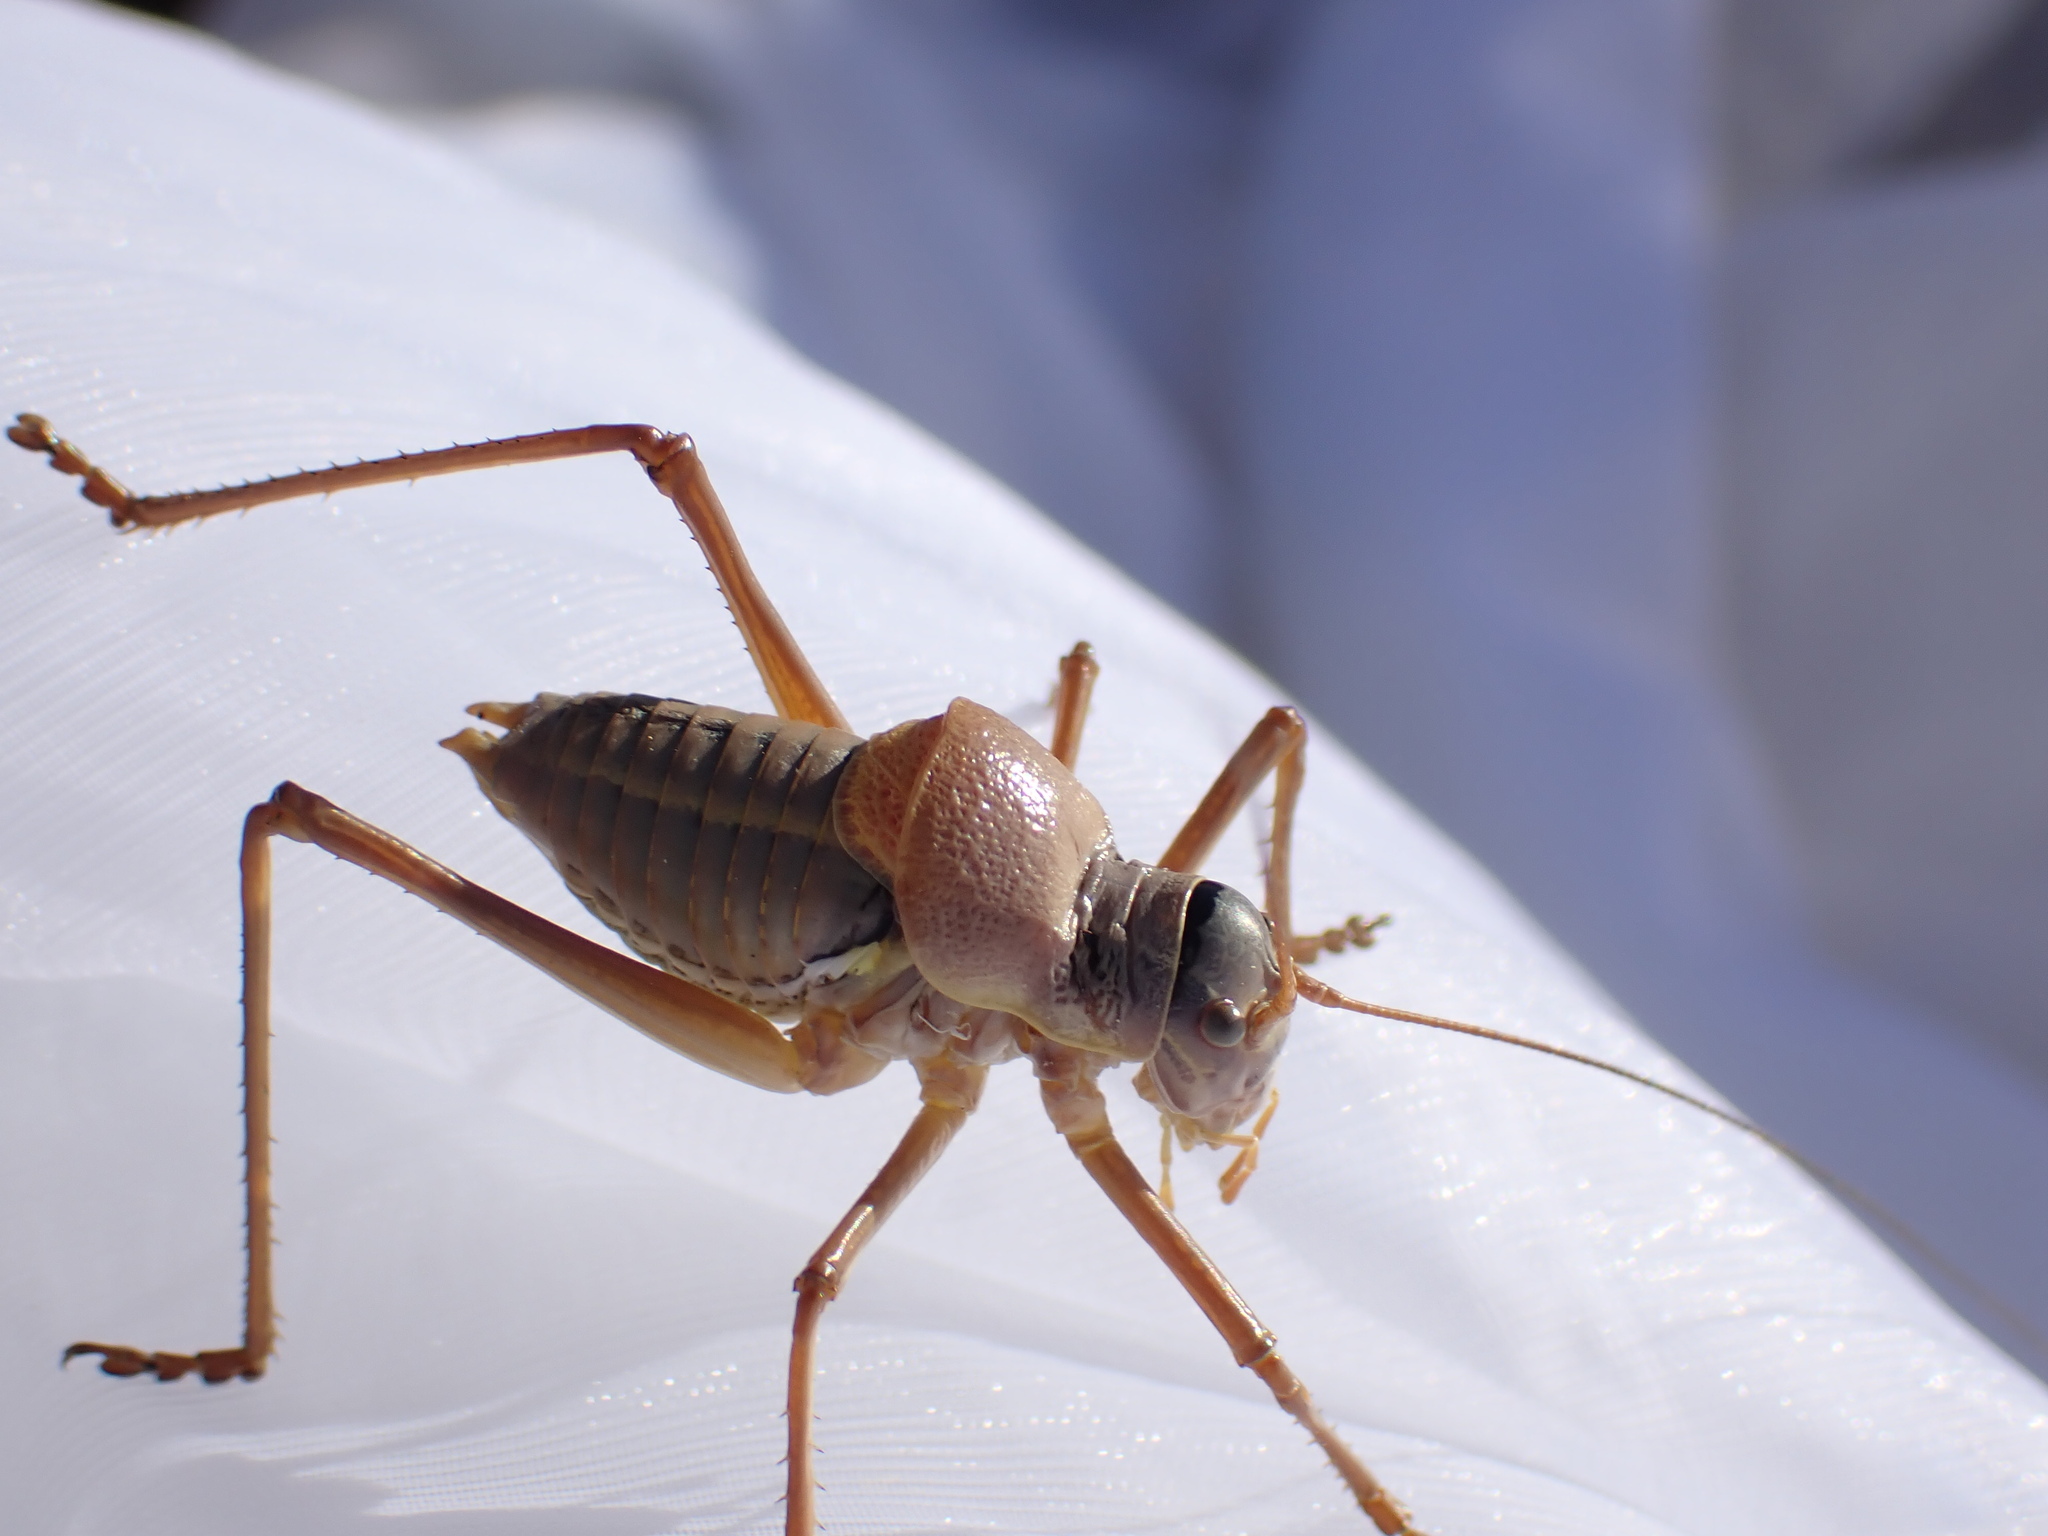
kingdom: Animalia
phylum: Arthropoda
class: Insecta
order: Orthoptera
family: Tettigoniidae
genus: Ephippiger
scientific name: Ephippiger terrestris
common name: Alpine saddle-backed bush-cricket
